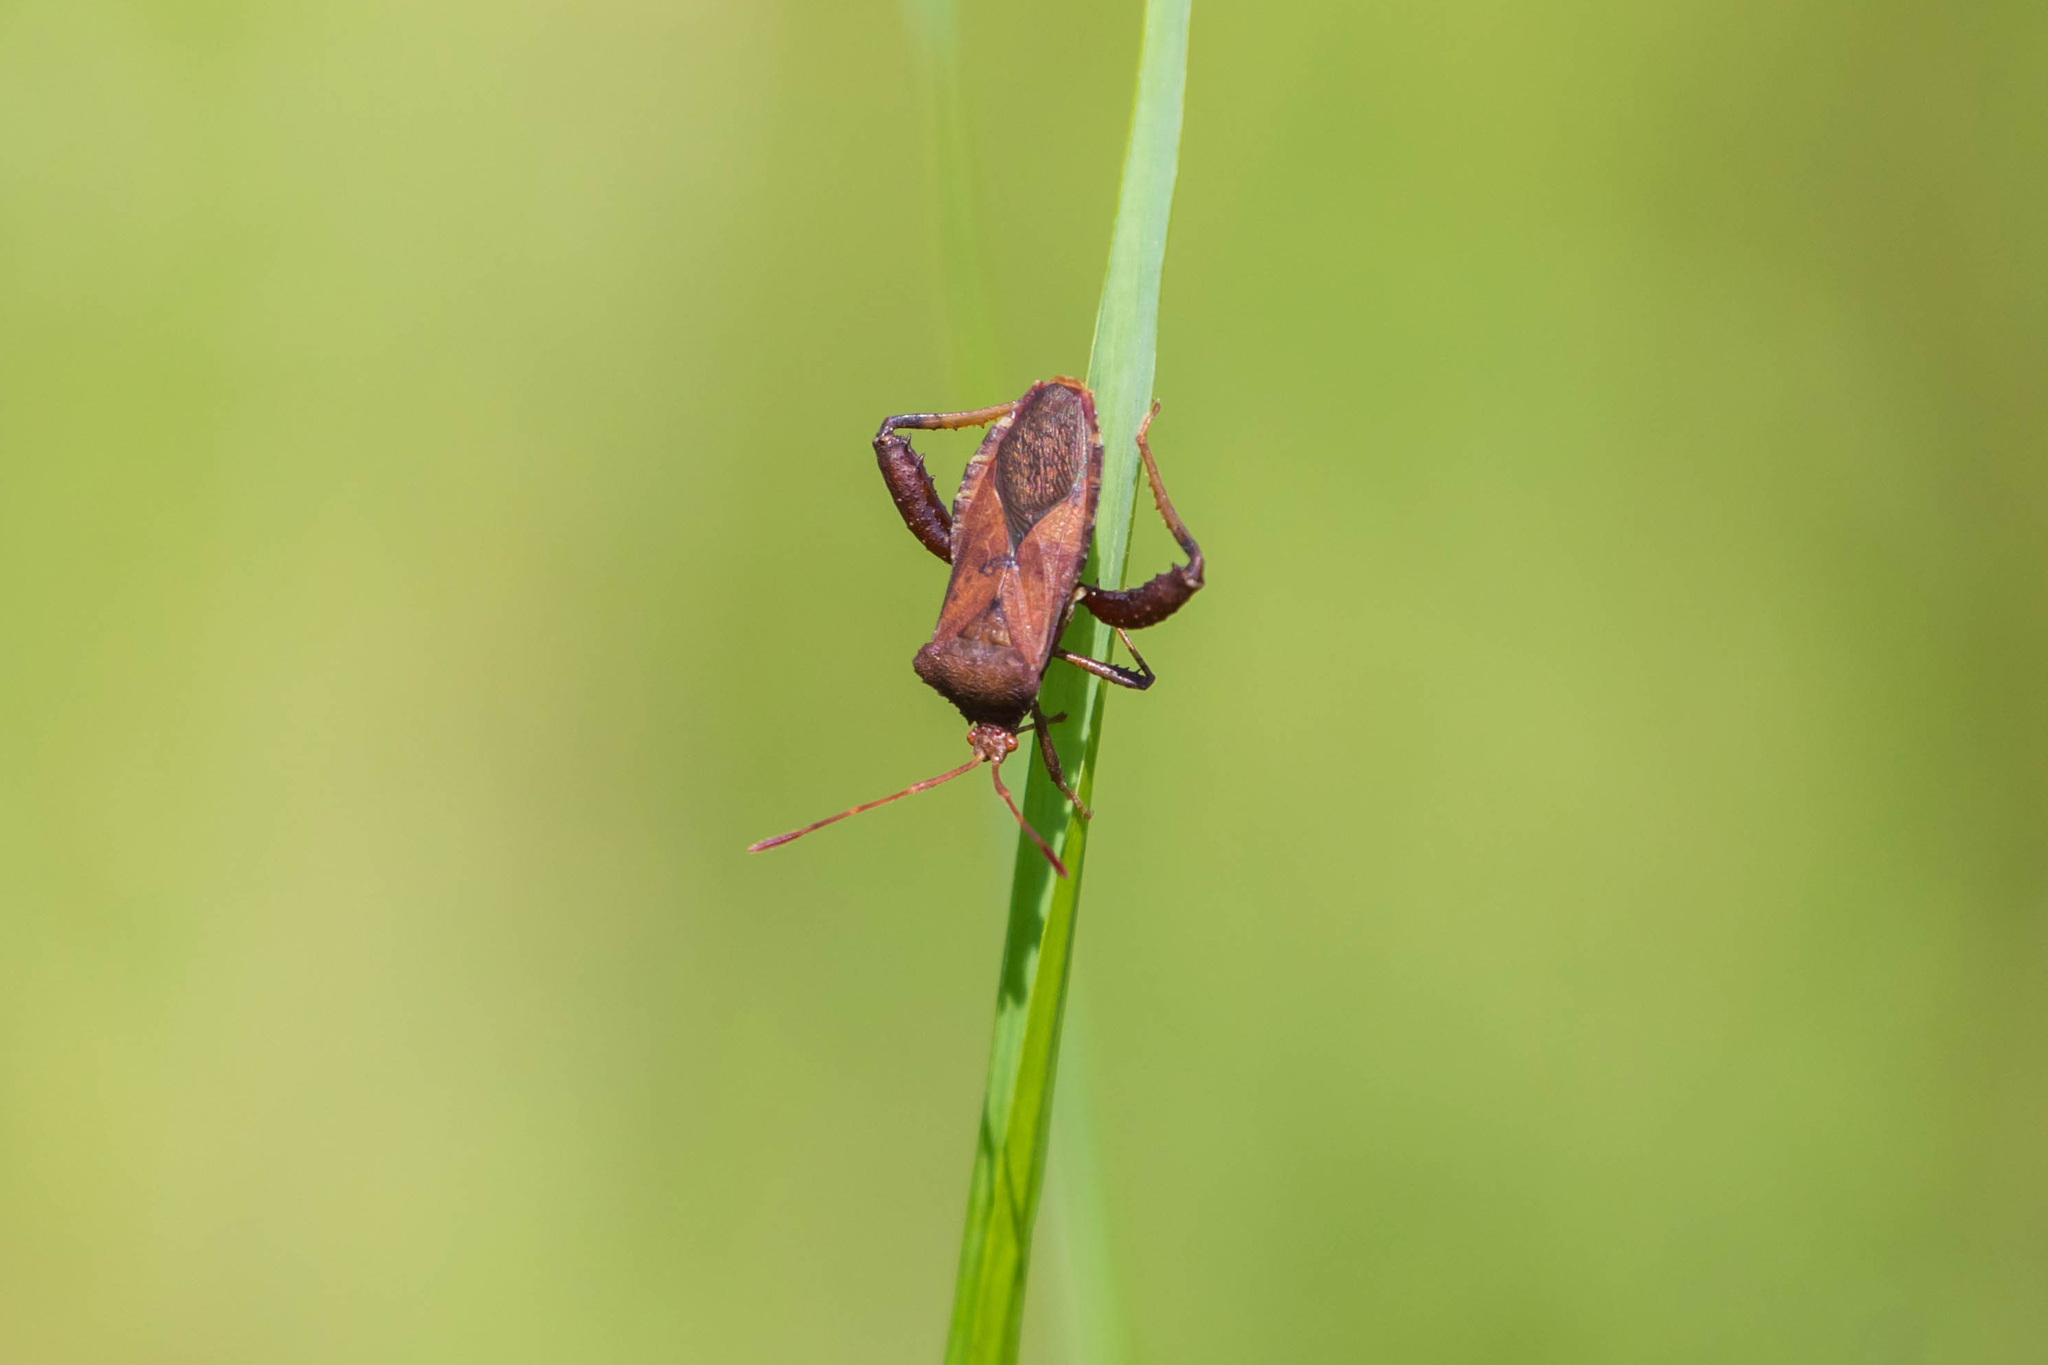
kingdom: Animalia
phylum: Arthropoda
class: Insecta
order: Hemiptera
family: Coreidae
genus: Euthochtha
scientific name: Euthochtha galeator
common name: Helmeted squash bug
